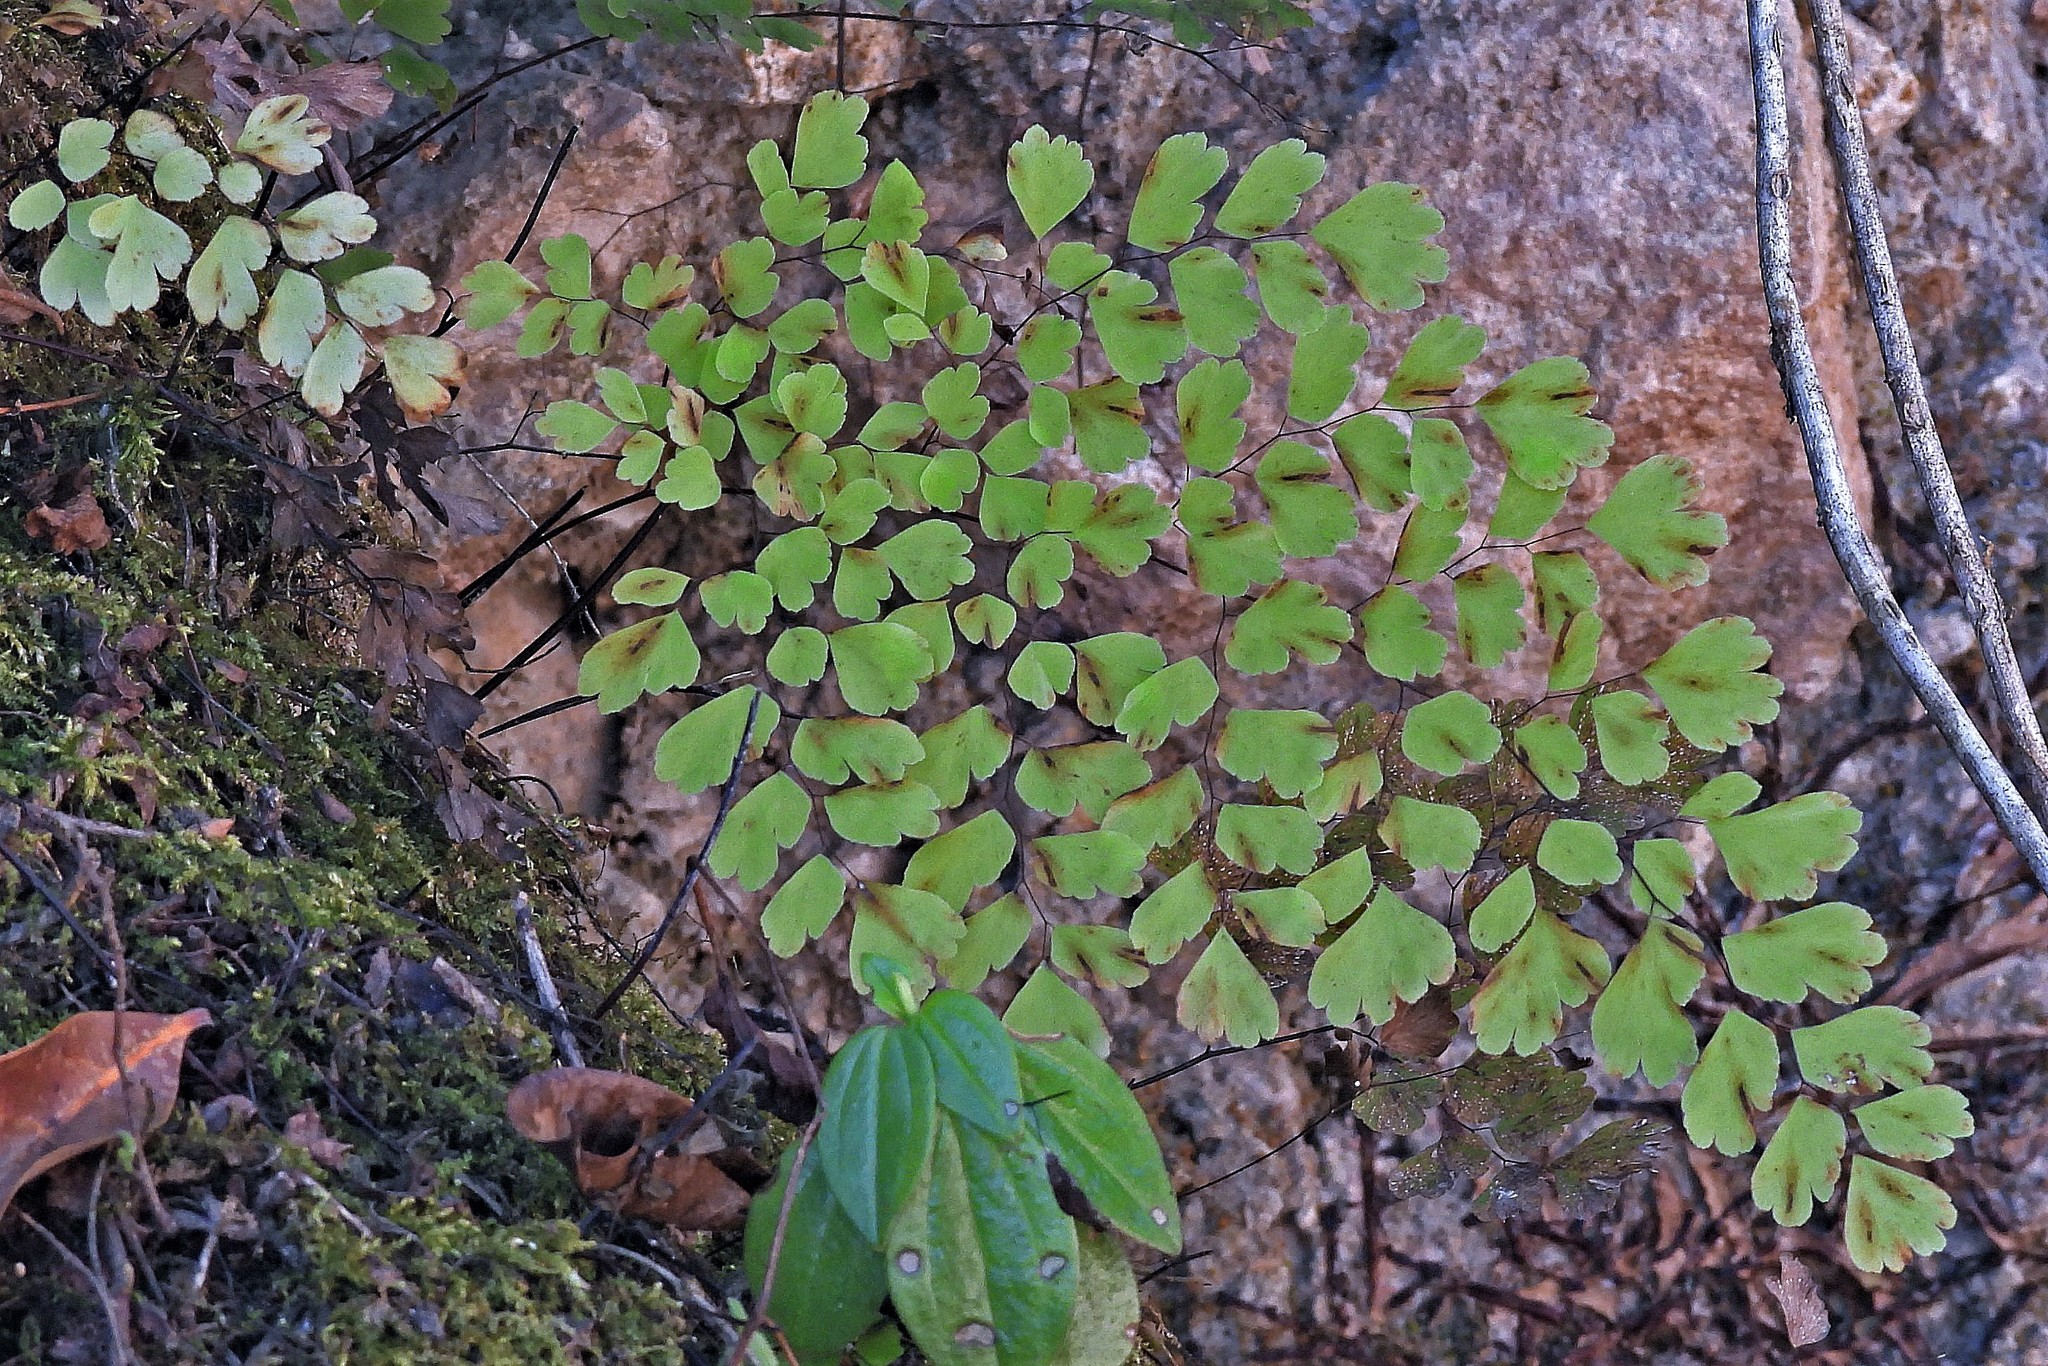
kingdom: Plantae
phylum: Tracheophyta
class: Polypodiopsida
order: Polypodiales
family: Pteridaceae
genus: Adiantum
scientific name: Adiantum raddianum
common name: Delta maidenhair fern
